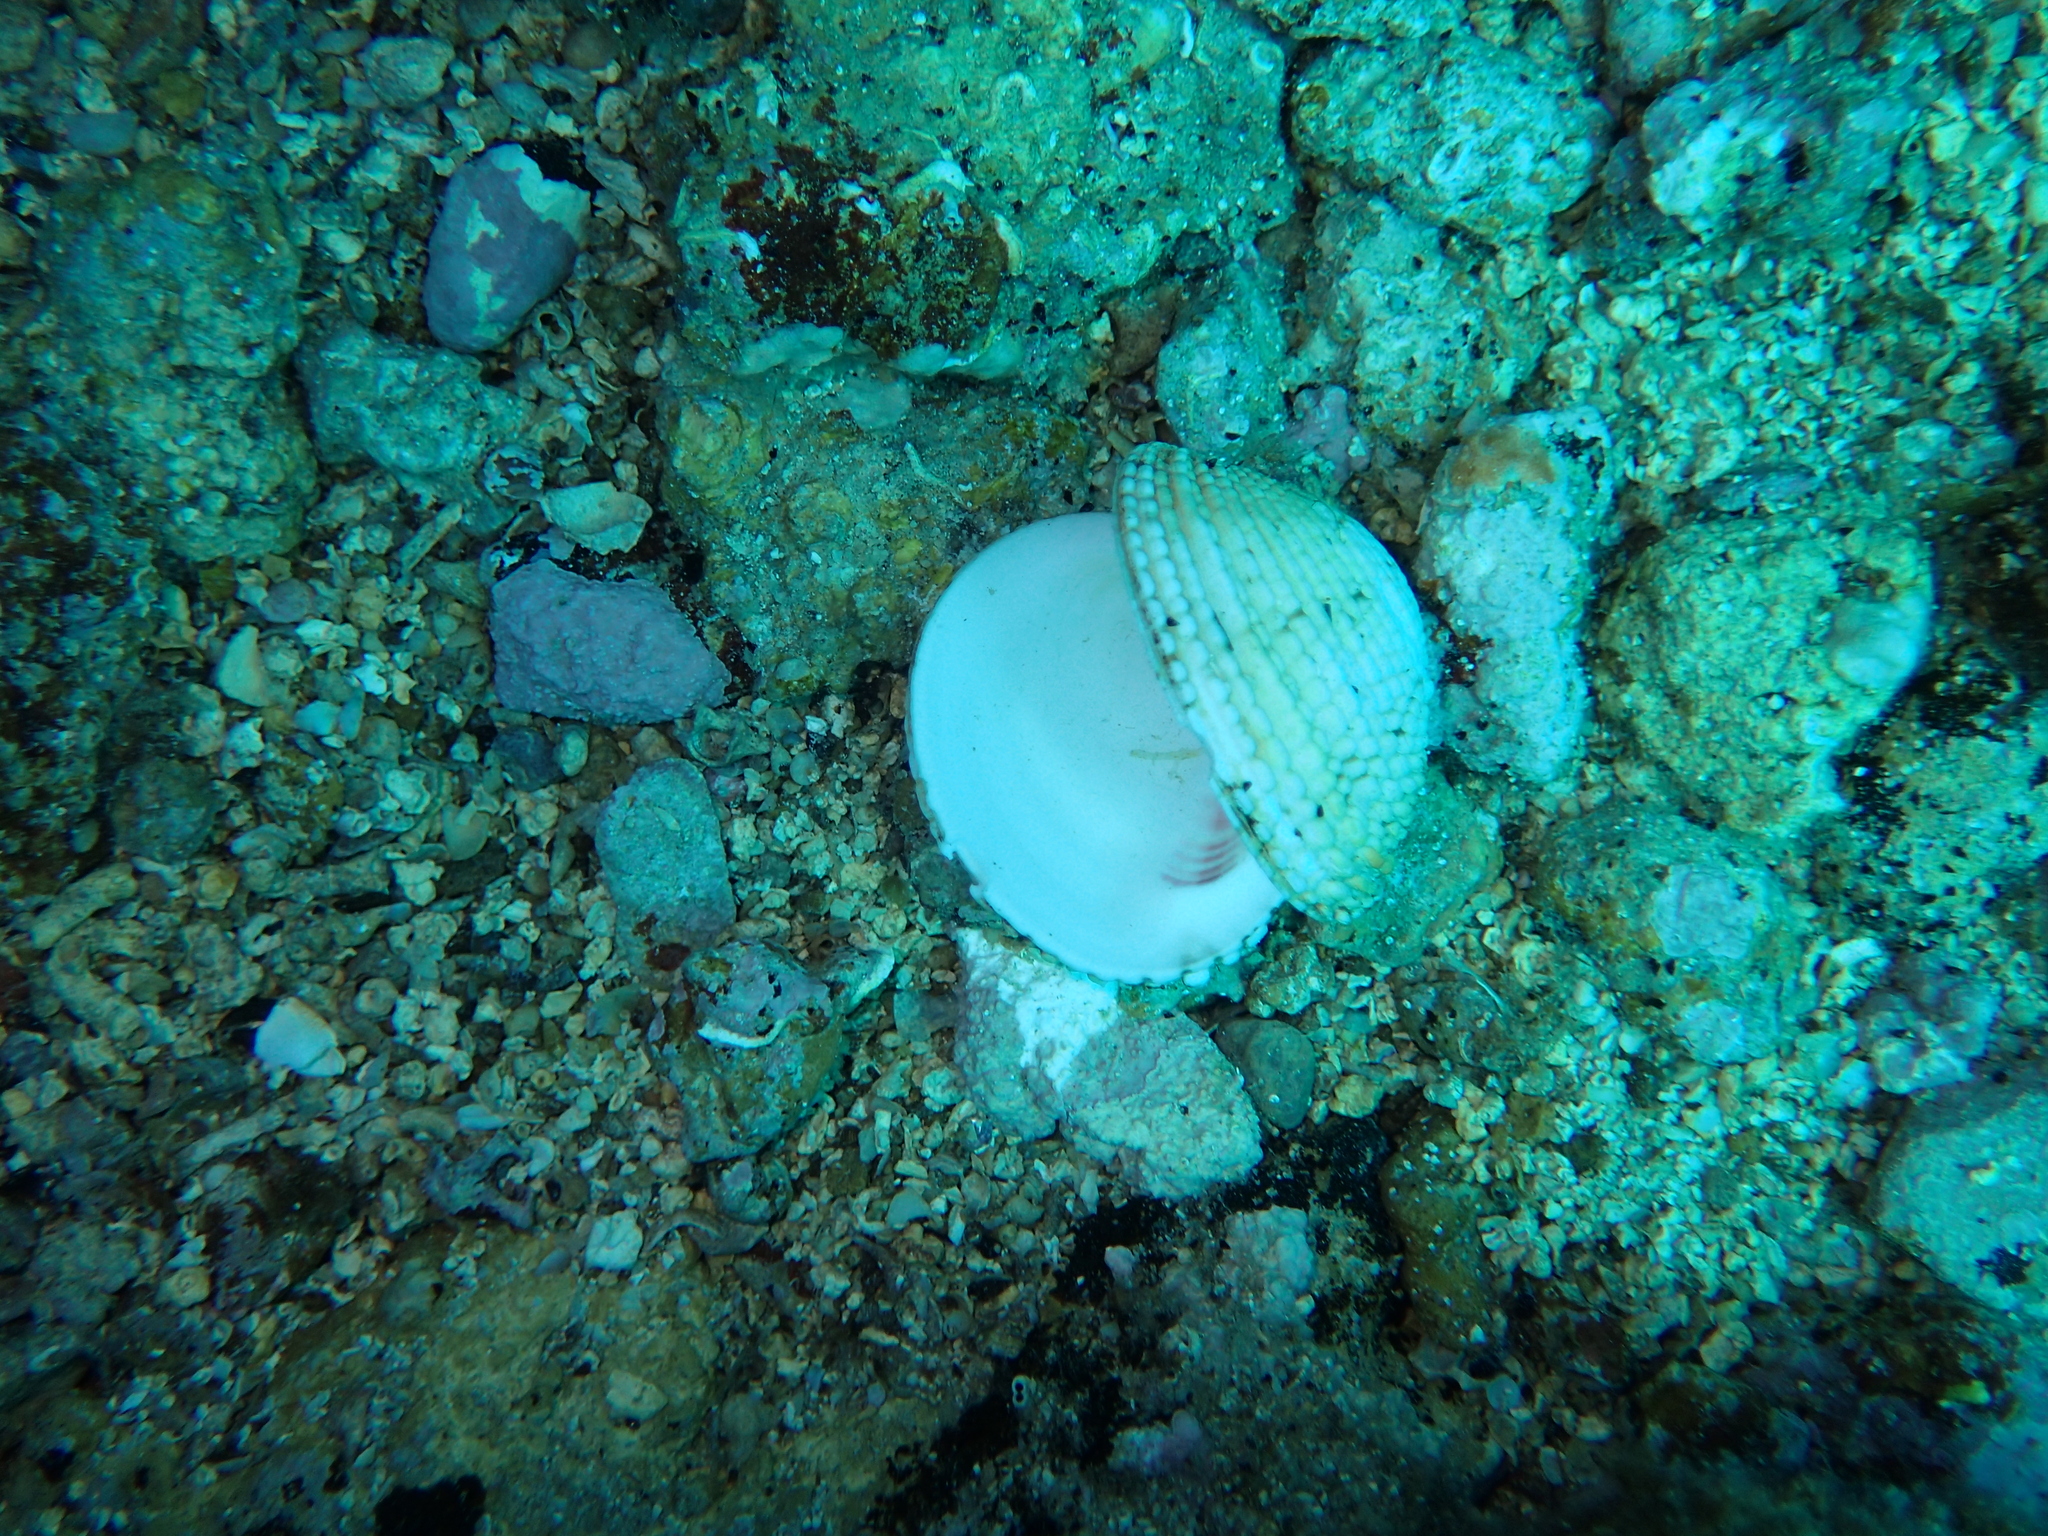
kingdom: Animalia
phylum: Mollusca
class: Bivalvia
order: Venerida
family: Veneridae
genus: Venus
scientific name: Venus verrucosa
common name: Warty venus
